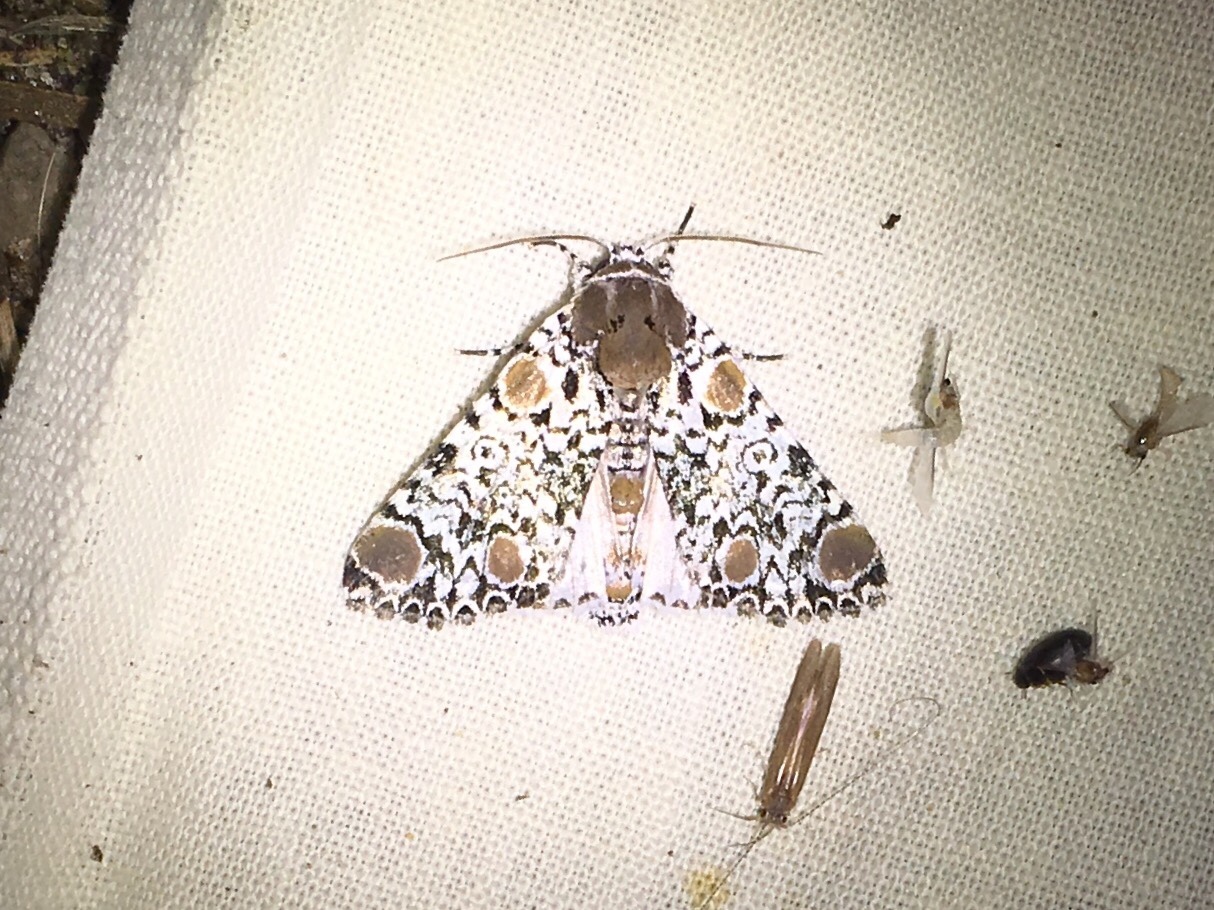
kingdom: Animalia
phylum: Arthropoda
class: Insecta
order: Lepidoptera
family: Noctuidae
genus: Harrisimemna
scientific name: Harrisimemna trisignata
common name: Harris threespot
